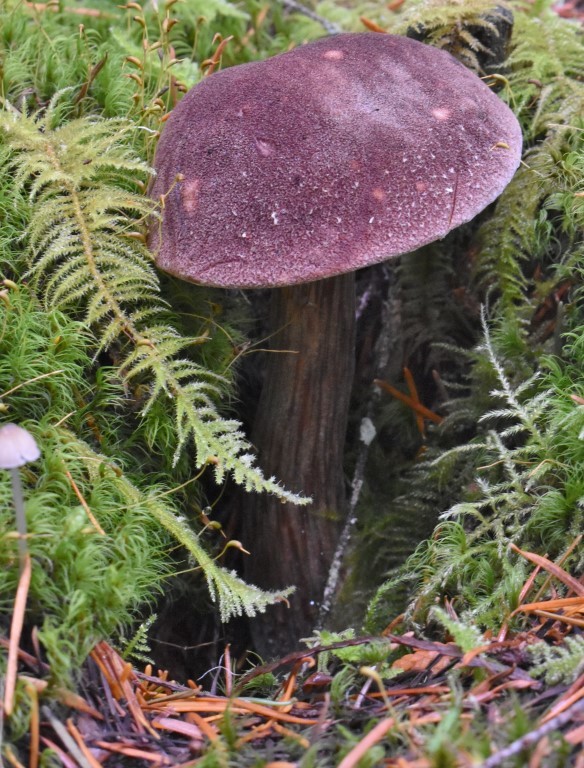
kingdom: Fungi
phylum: Basidiomycota
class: Agaricomycetes
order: Boletales
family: Boletaceae
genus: Aureoboletus
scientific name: Aureoboletus mirabilis
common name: Admirable bolete
